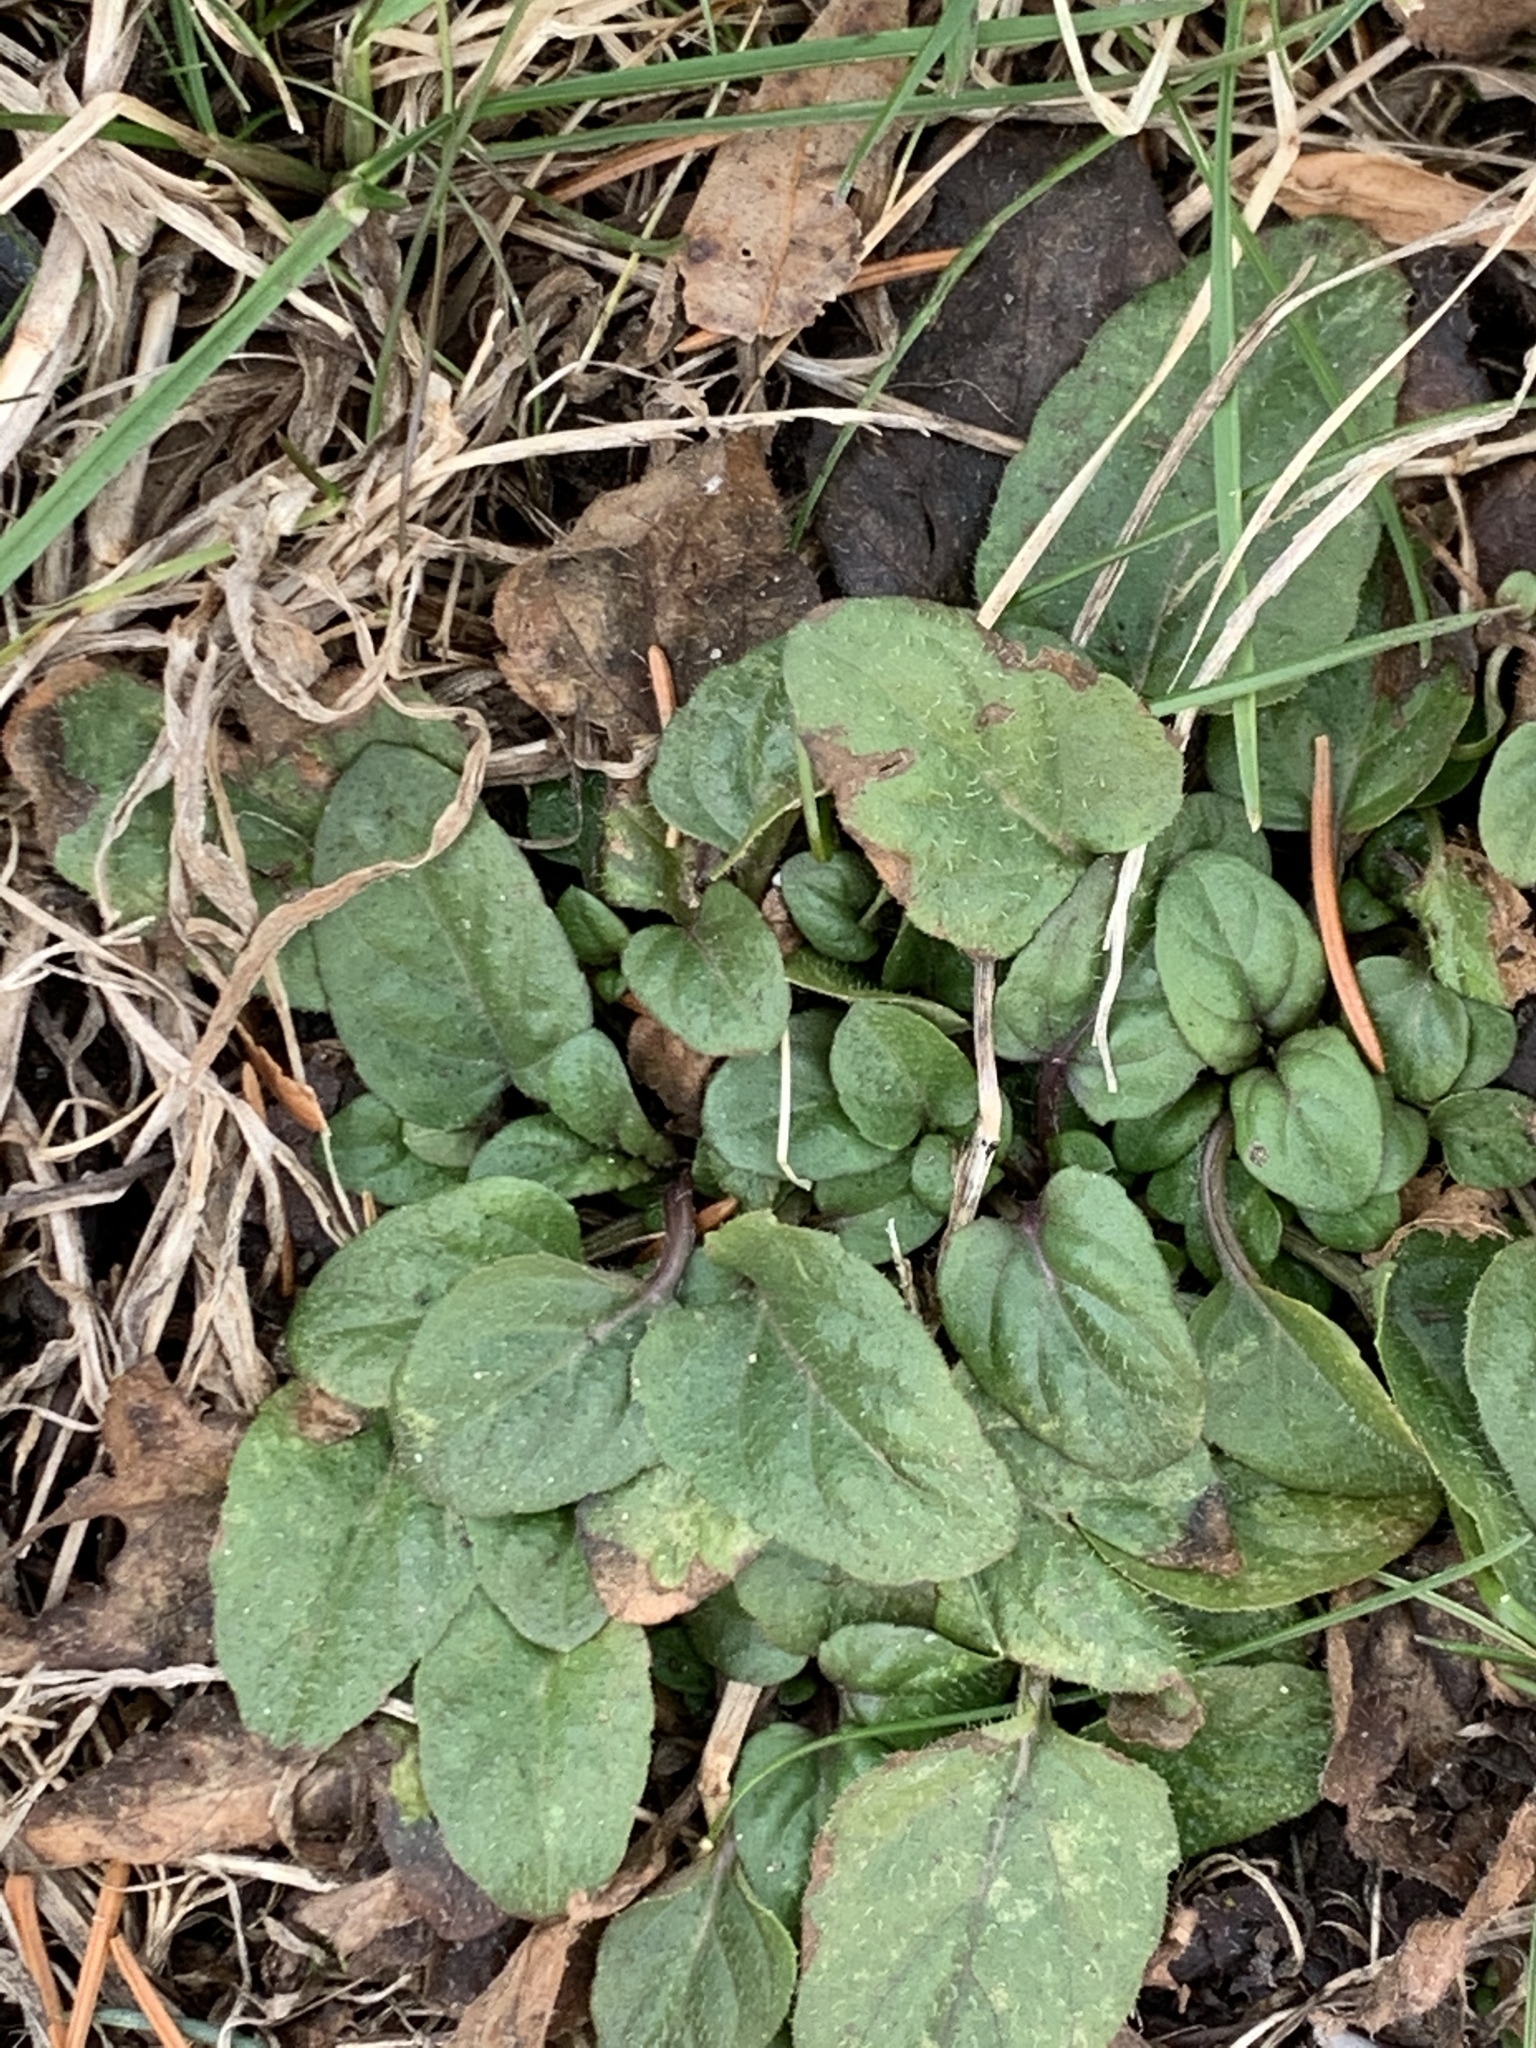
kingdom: Plantae
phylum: Tracheophyta
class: Magnoliopsida
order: Lamiales
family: Lamiaceae
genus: Prunella
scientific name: Prunella vulgaris
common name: Heal-all
